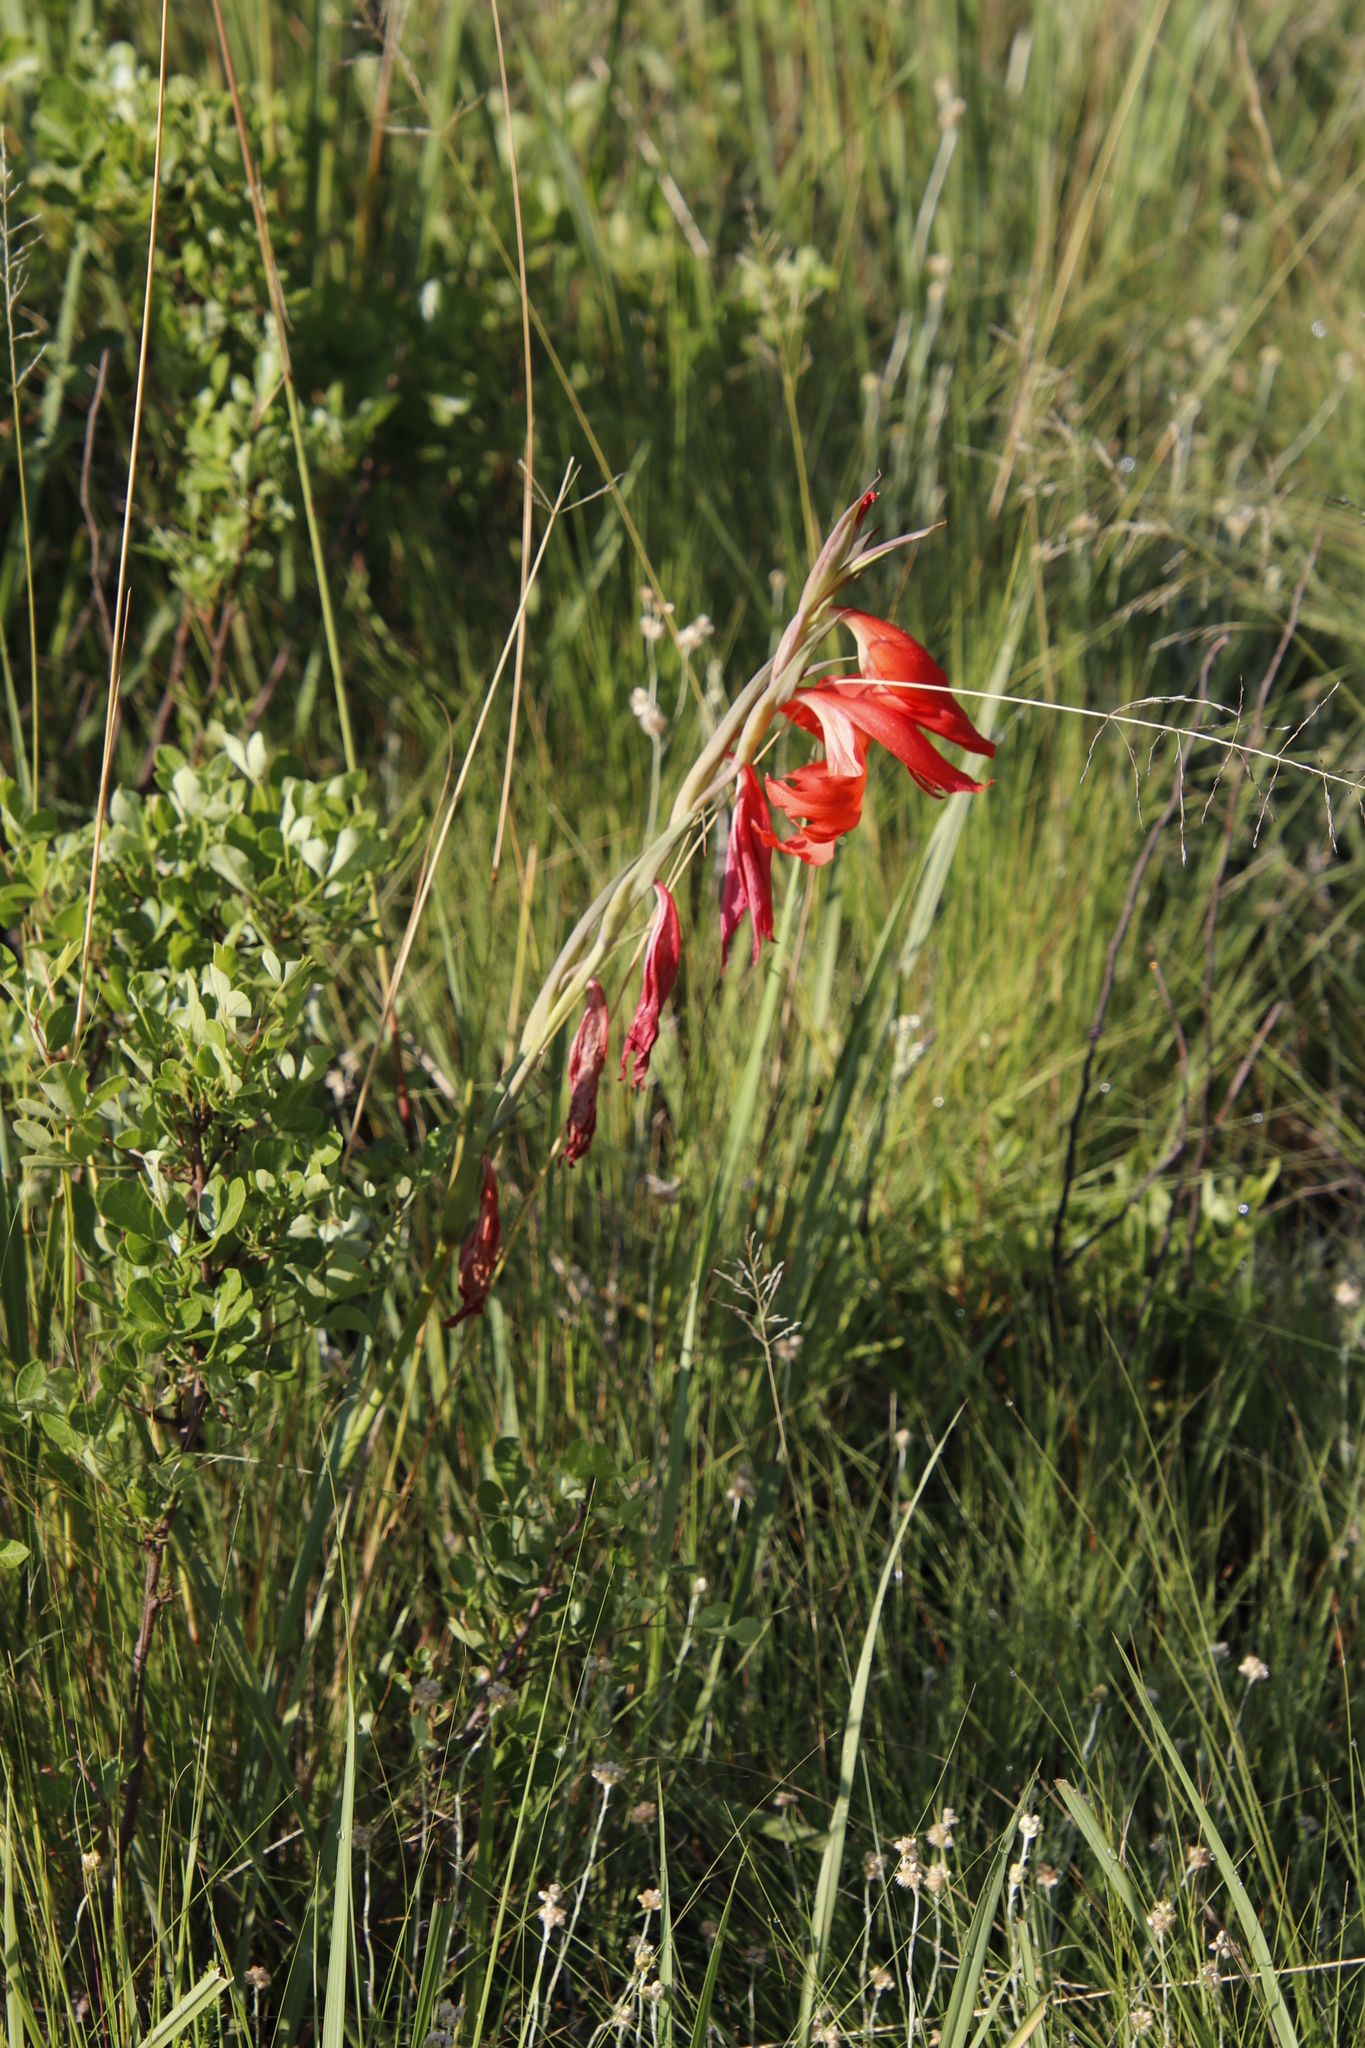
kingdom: Plantae
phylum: Tracheophyta
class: Liliopsida
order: Asparagales
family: Iridaceae
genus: Gladiolus
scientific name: Gladiolus saundersii
